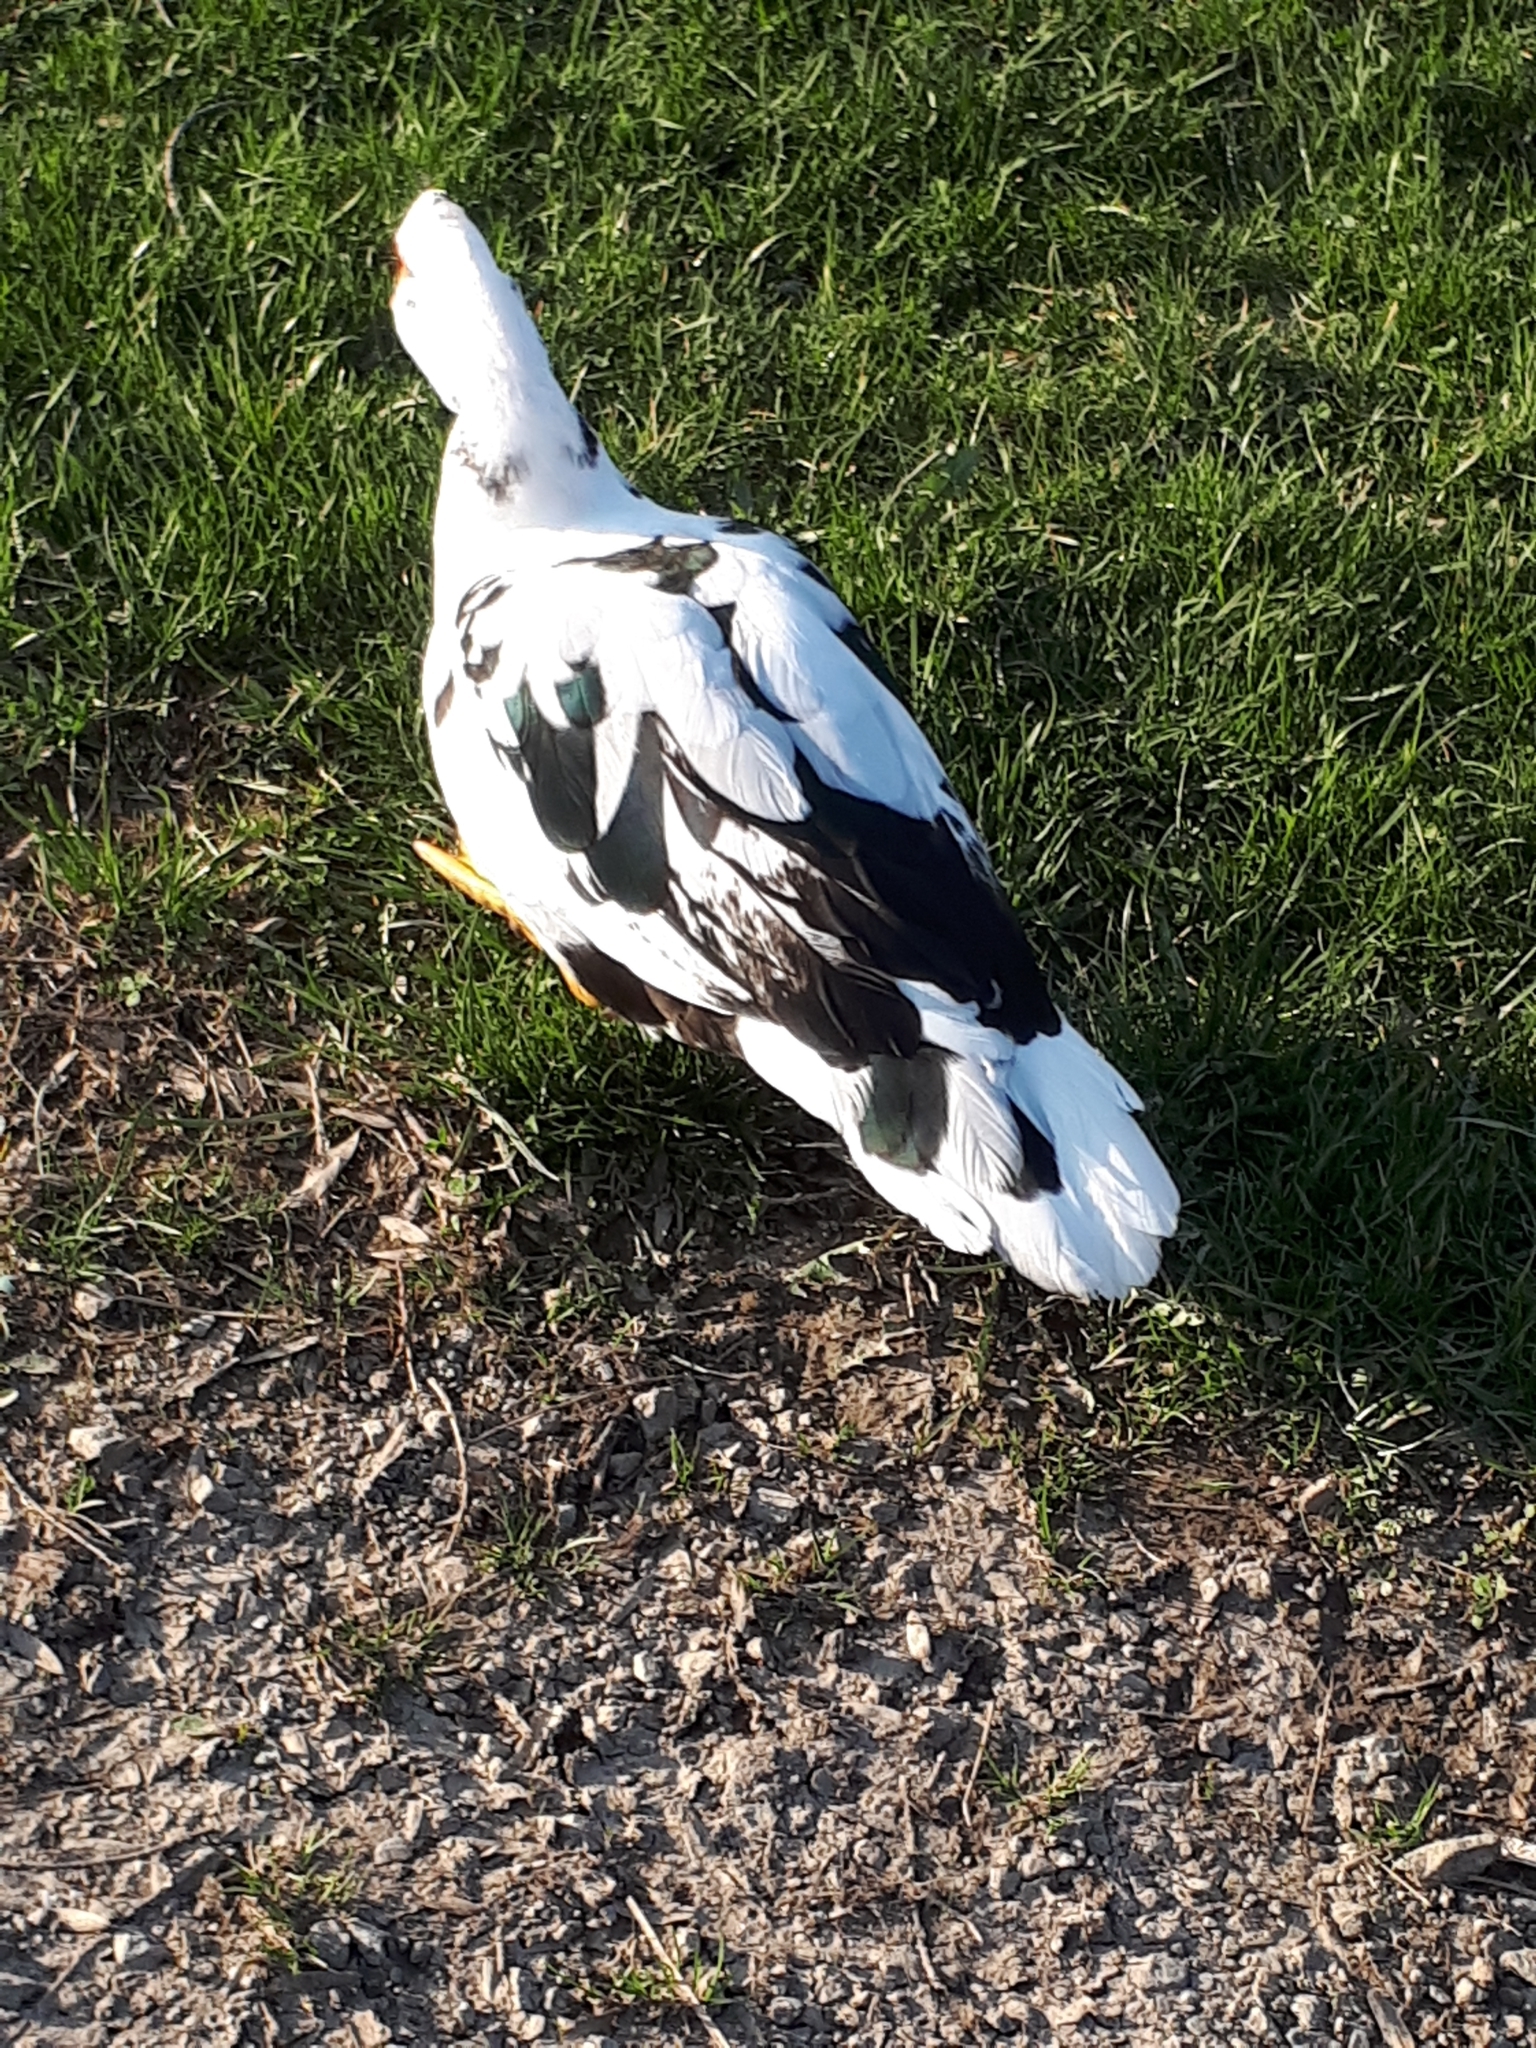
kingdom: Animalia
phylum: Chordata
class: Aves
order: Anseriformes
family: Anatidae
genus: Cairina
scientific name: Cairina moschata
